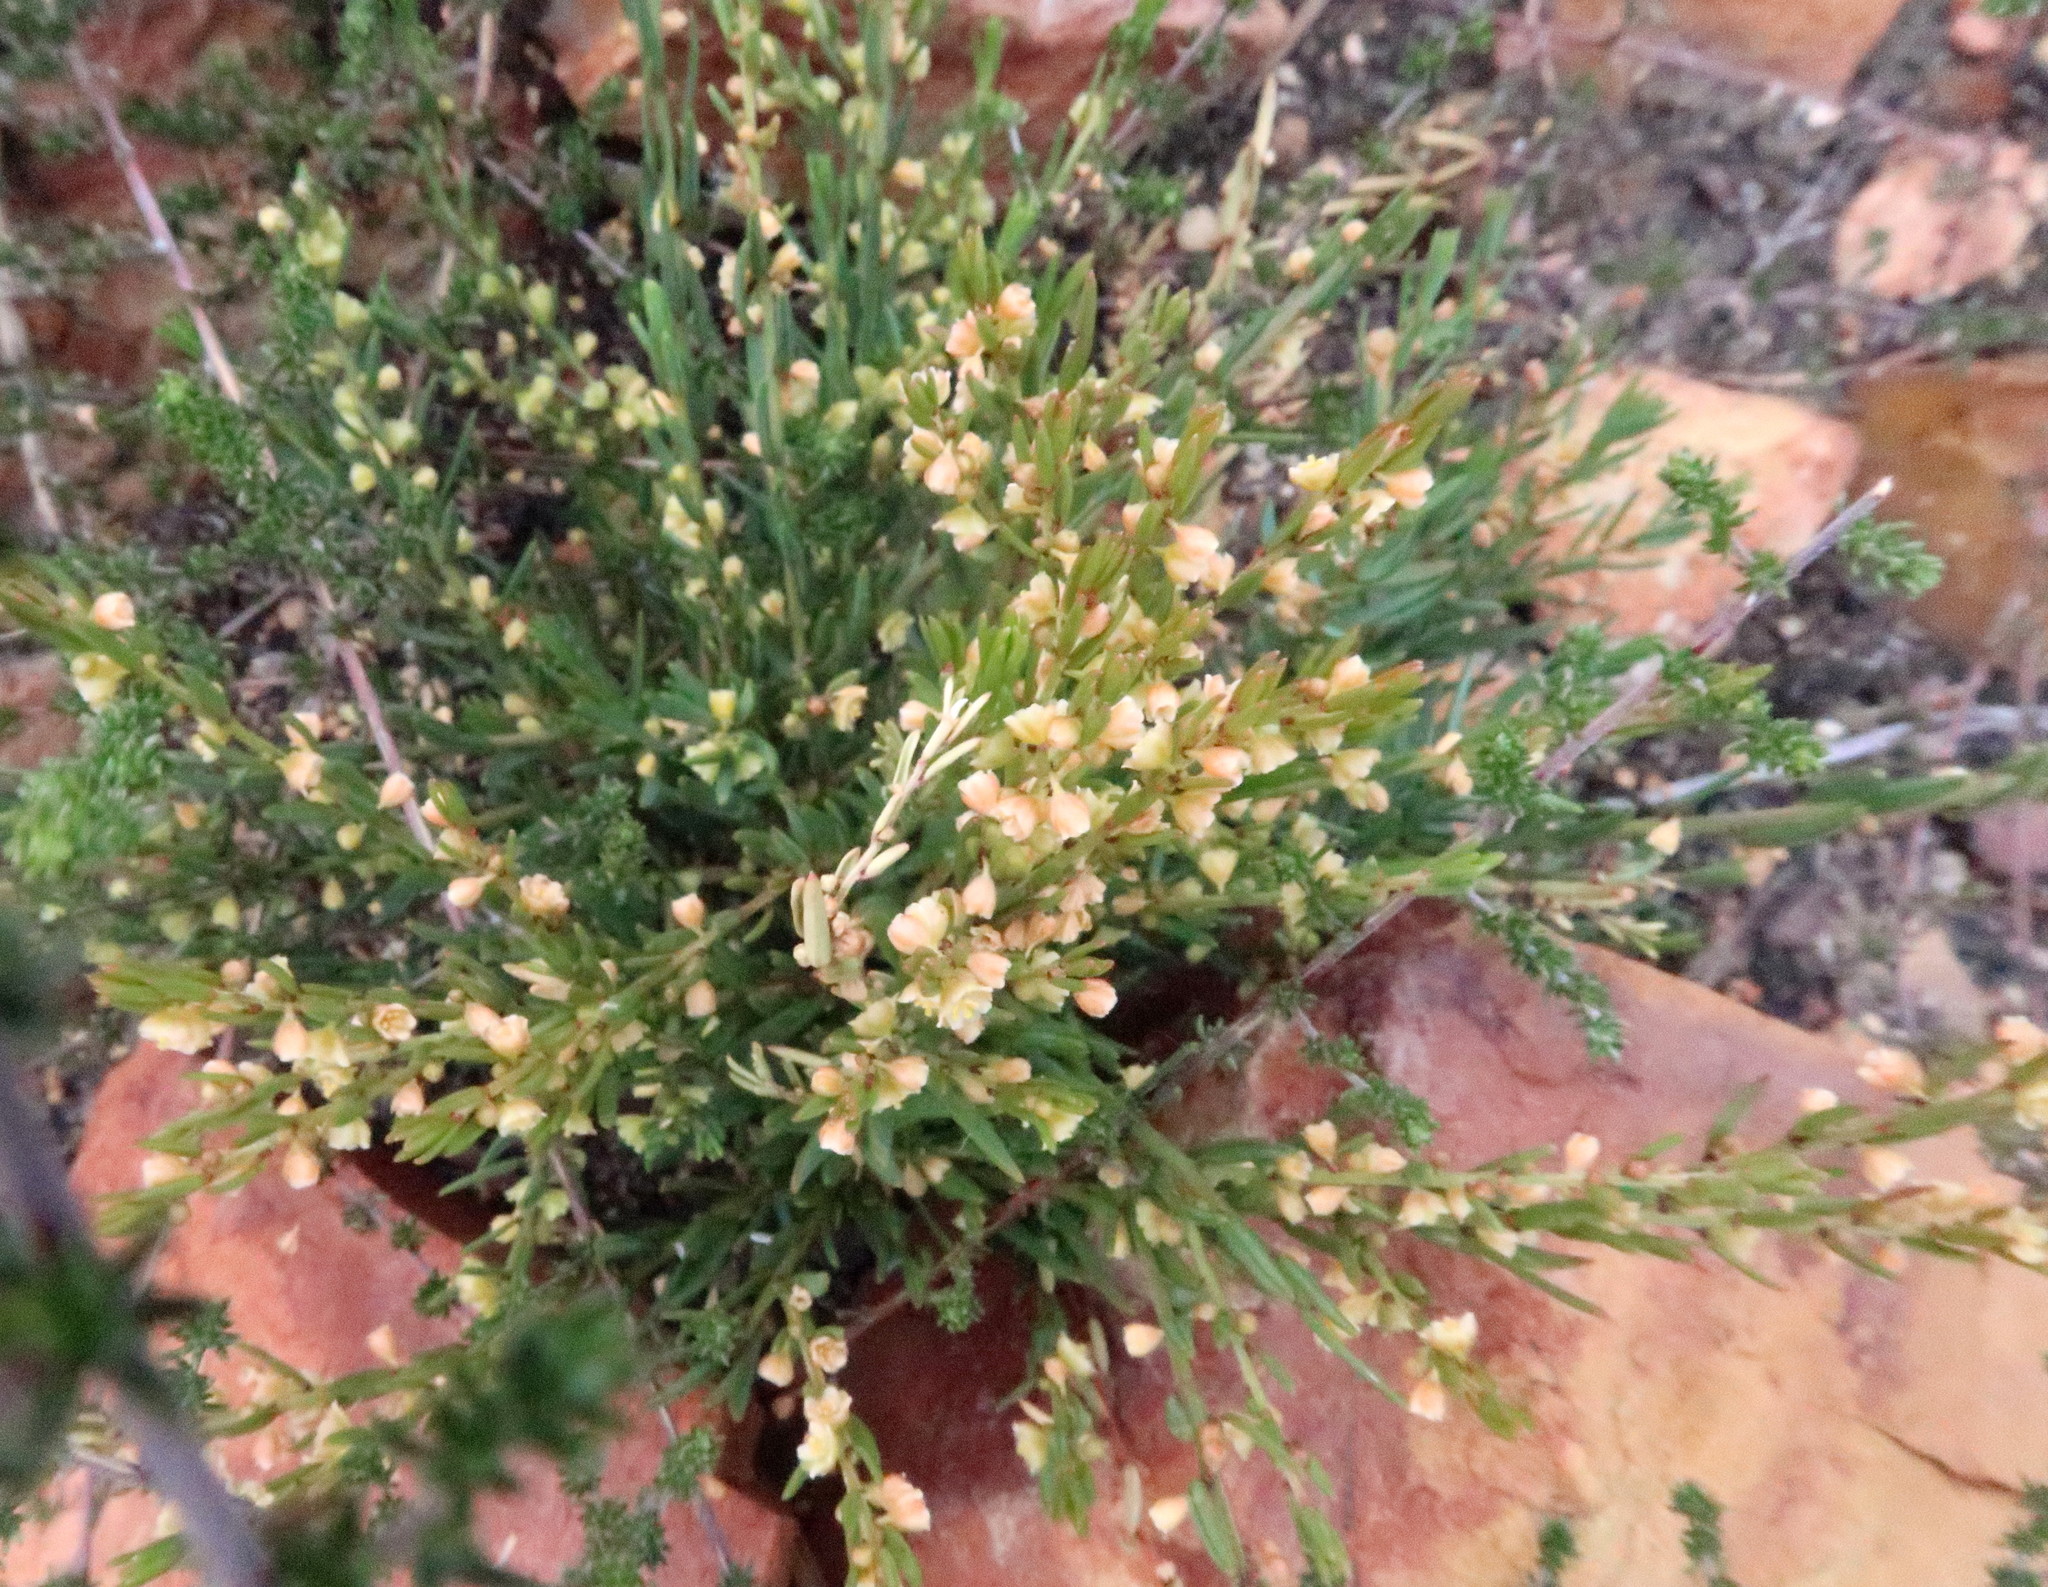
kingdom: Plantae
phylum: Tracheophyta
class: Magnoliopsida
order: Malpighiales
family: Peraceae
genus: Clutia
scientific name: Clutia ericoides
